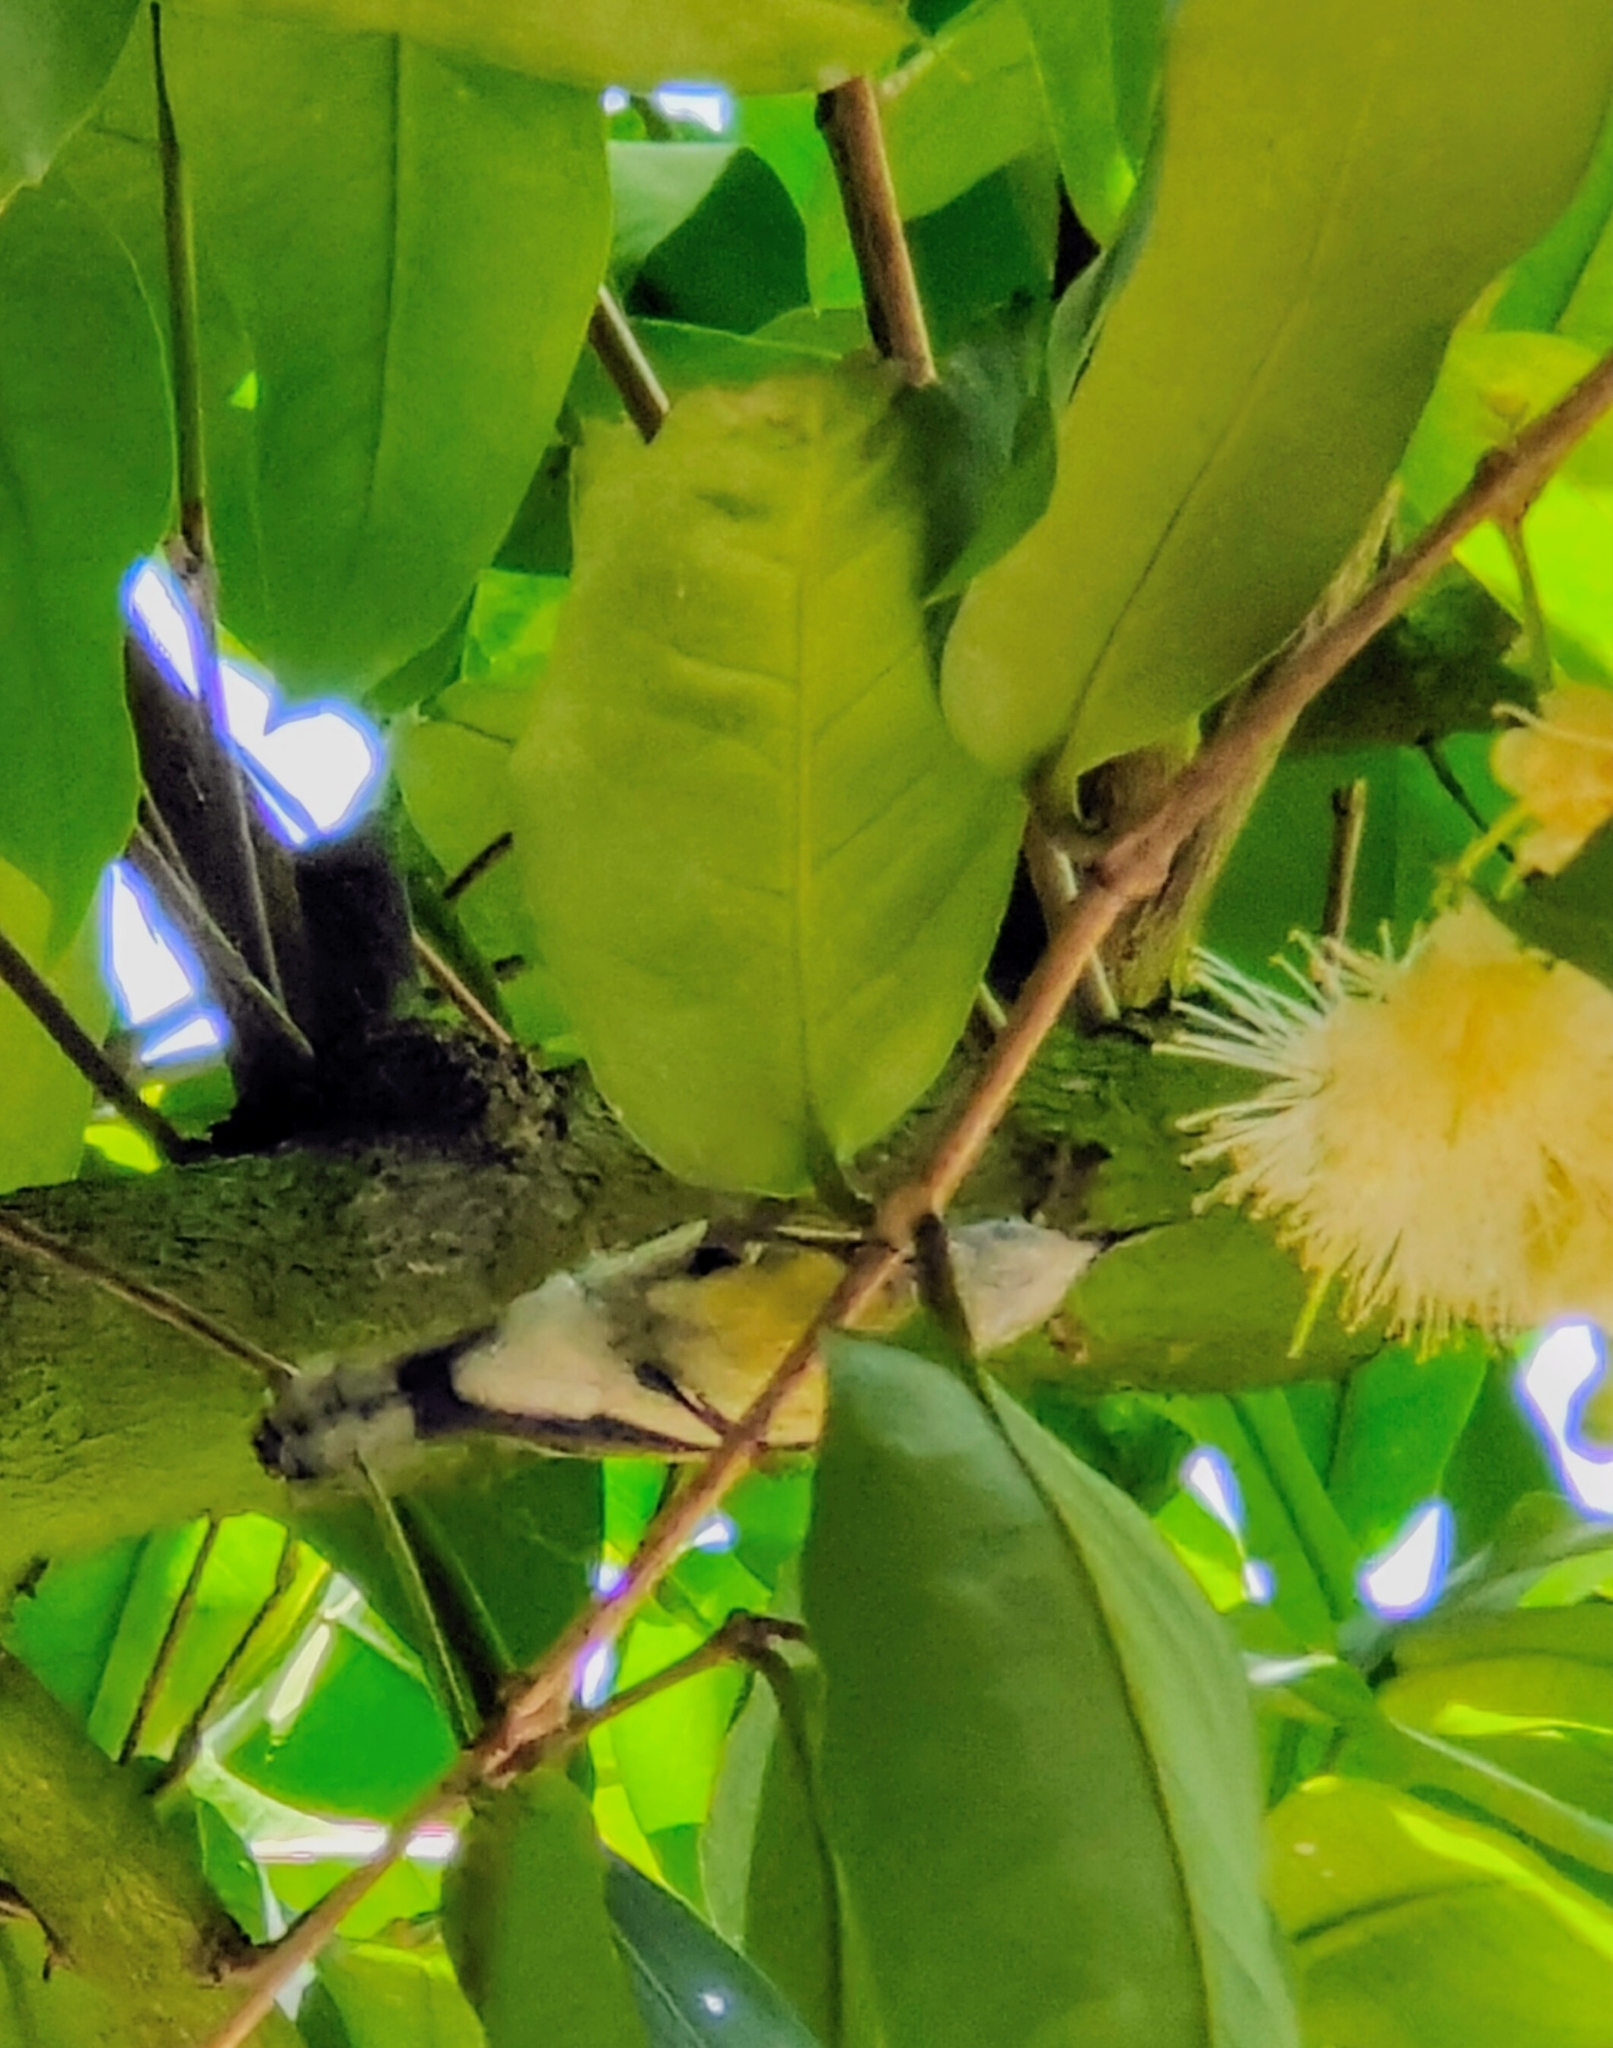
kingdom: Animalia
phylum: Chordata
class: Aves
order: Passeriformes
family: Nectariniidae
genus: Leptocoma
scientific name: Leptocoma calcostetha
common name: Copper-throated sunbird
